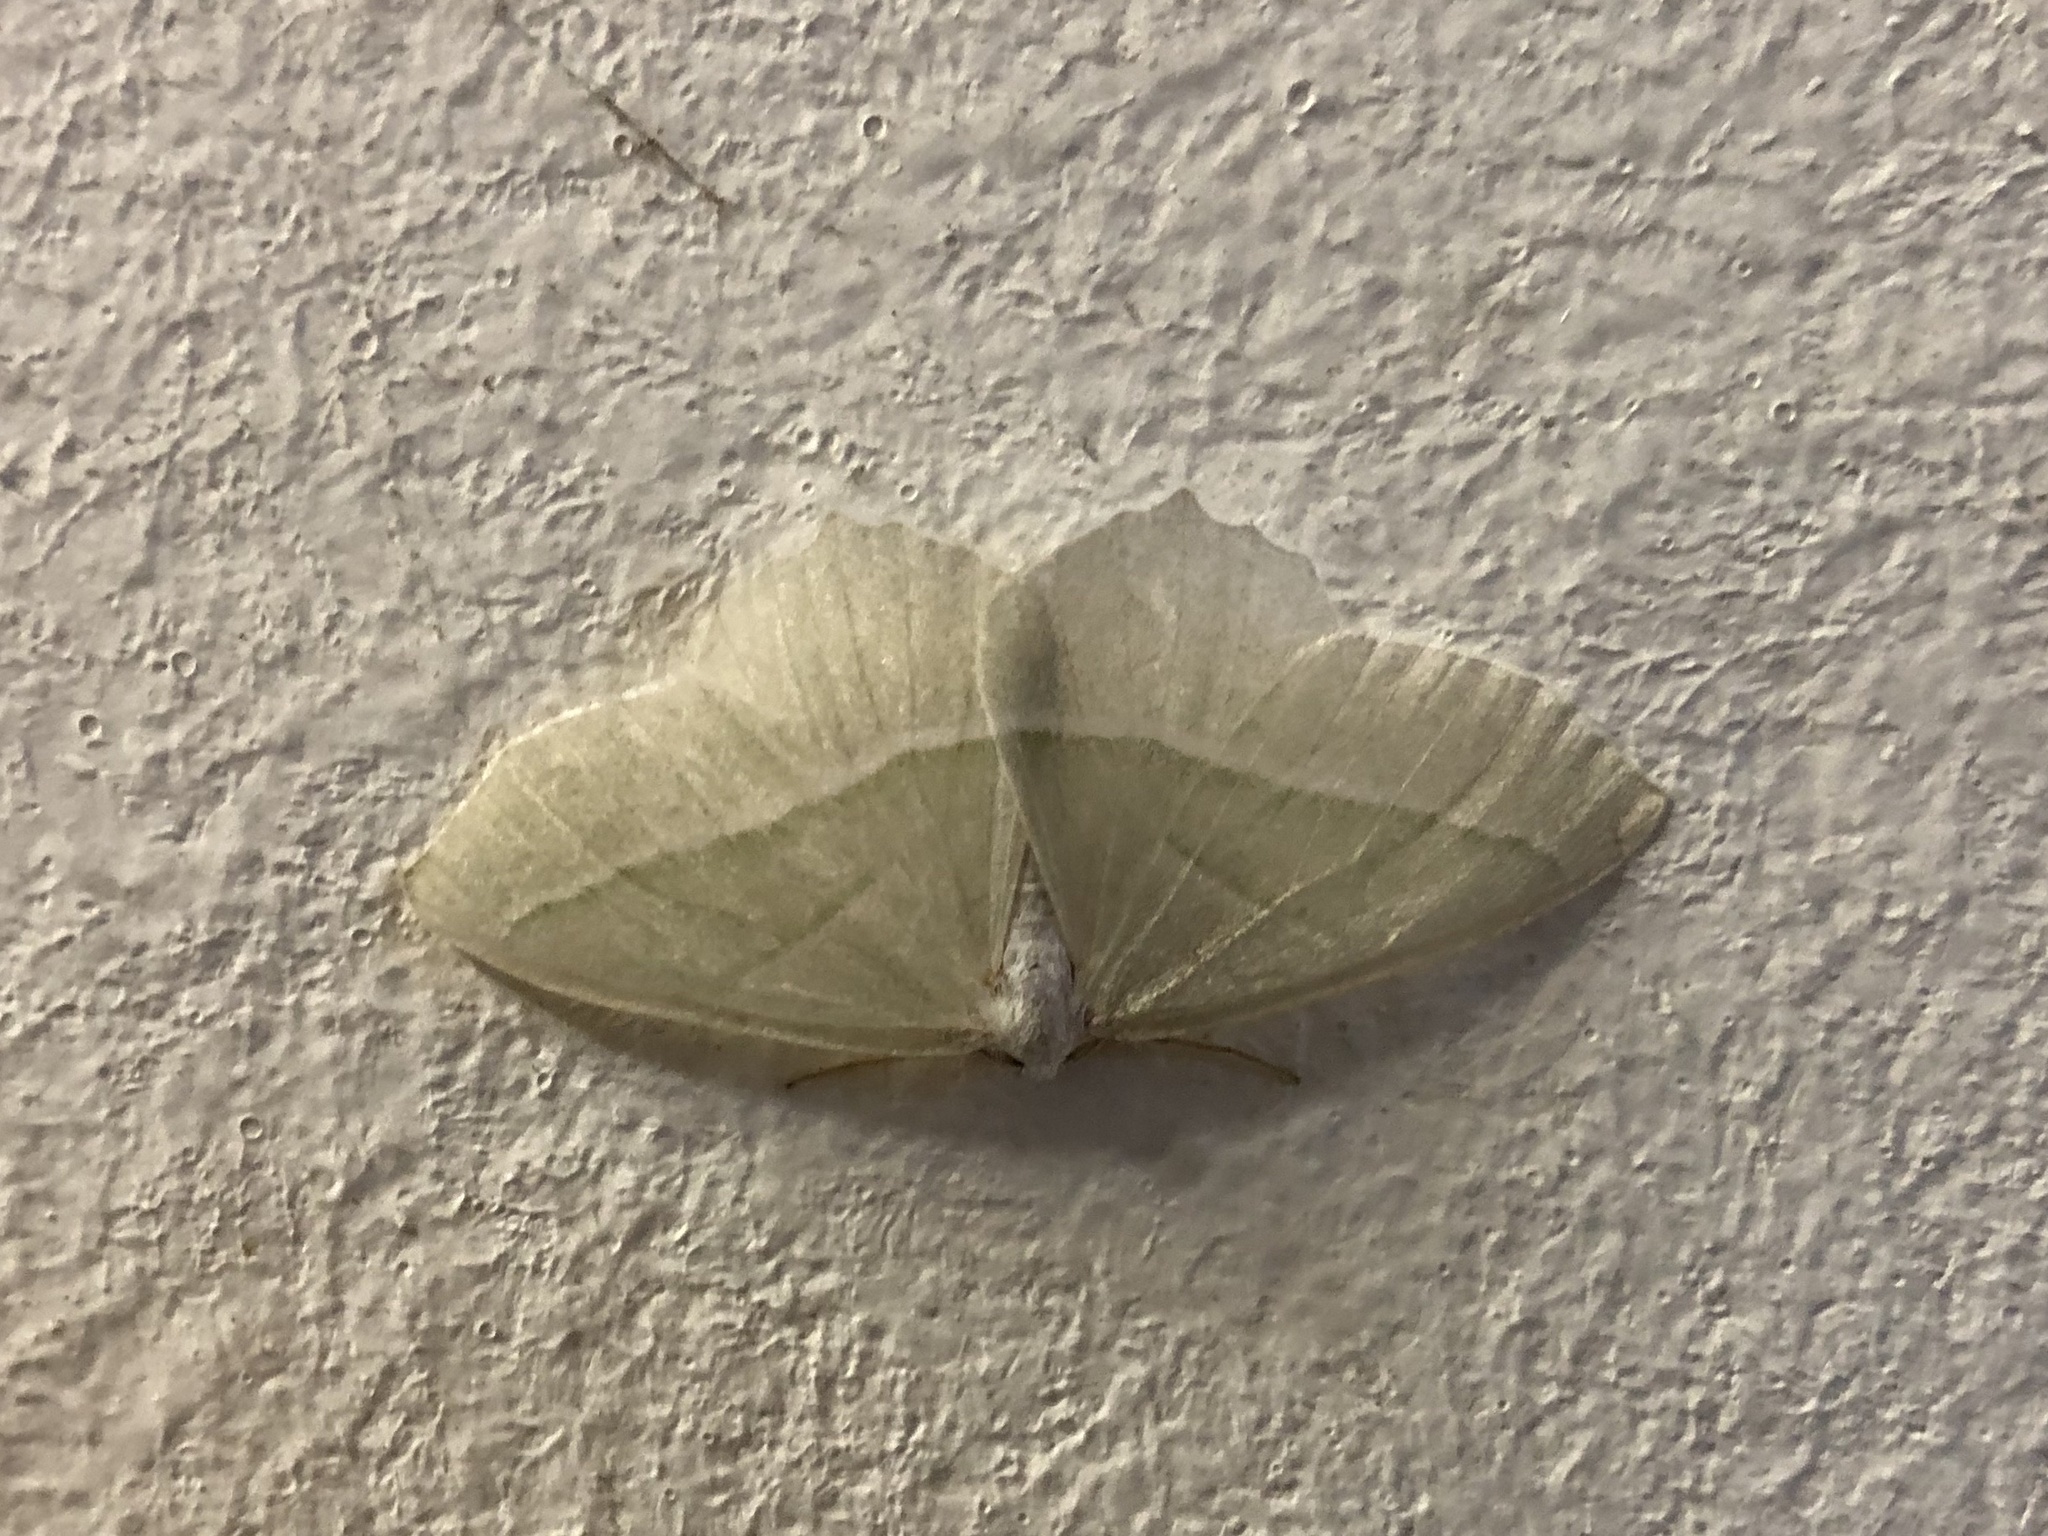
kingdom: Animalia
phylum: Arthropoda
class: Insecta
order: Lepidoptera
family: Geometridae
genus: Campaea
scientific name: Campaea margaritaria
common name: Light emerald
